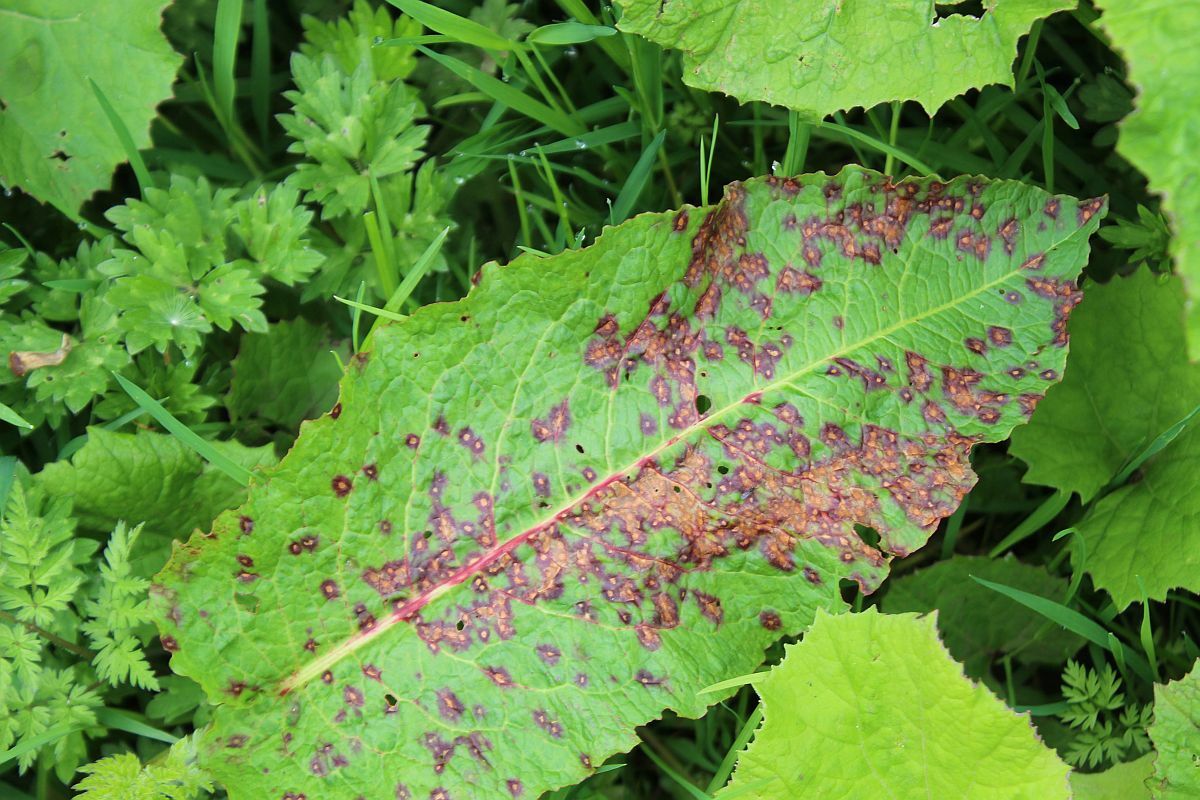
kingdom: Fungi
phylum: Ascomycota
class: Dothideomycetes
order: Mycosphaerellales
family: Mycosphaerellaceae
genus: Ramularia
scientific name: Ramularia rubella
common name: Red dock spot
